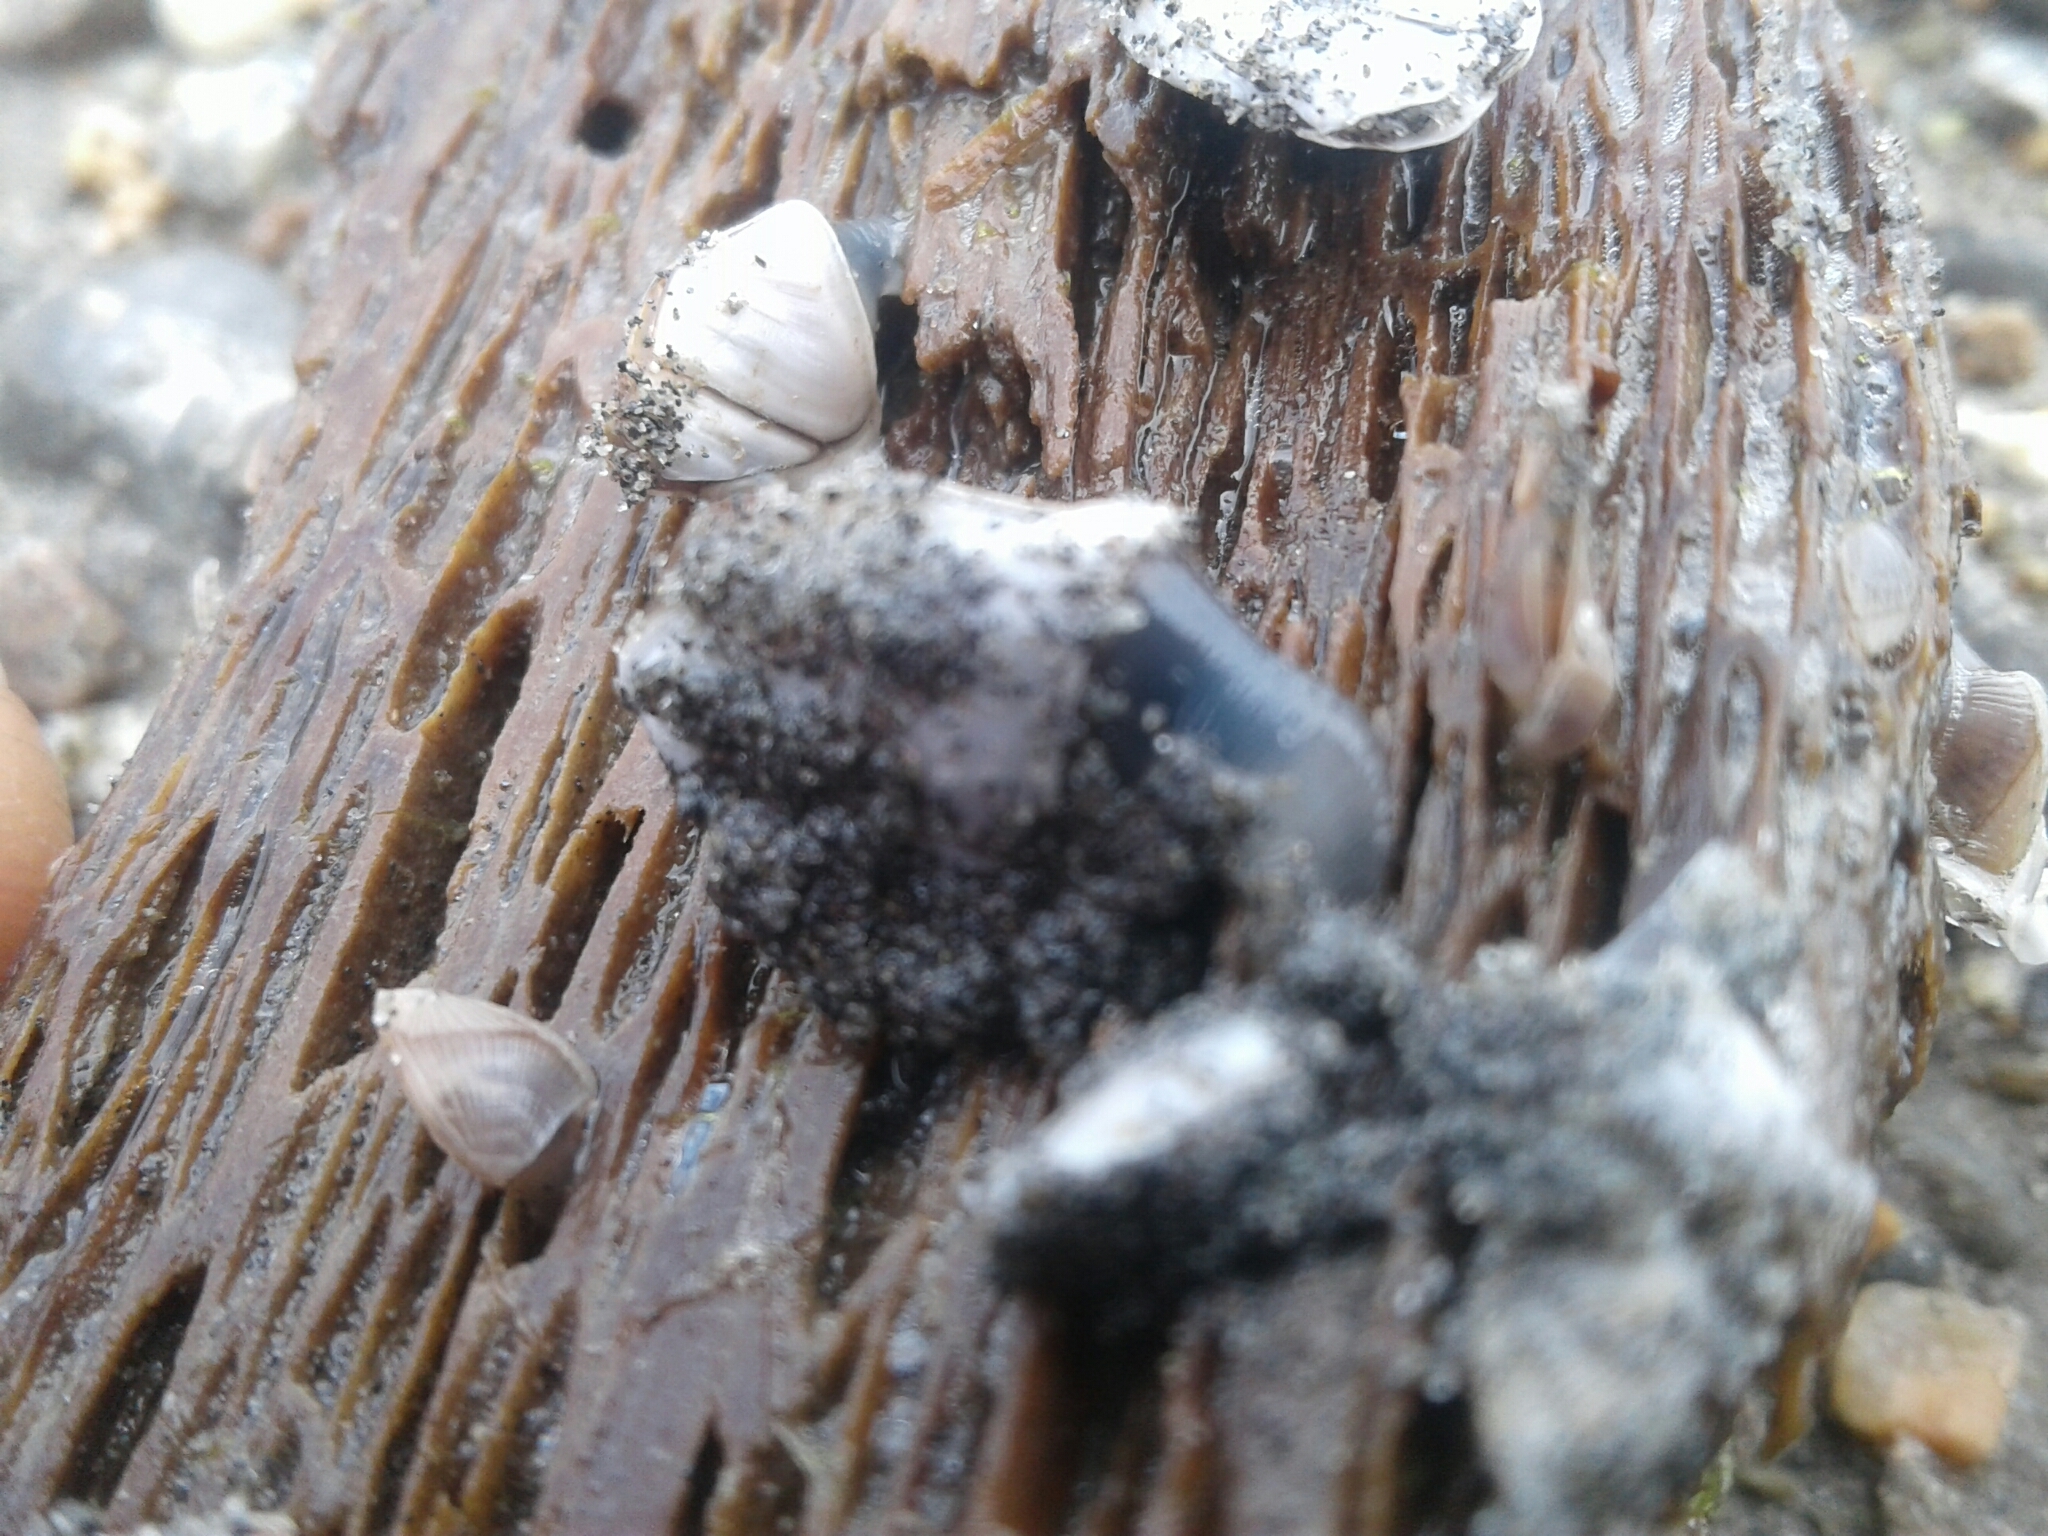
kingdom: Animalia
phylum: Arthropoda
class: Maxillopoda
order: Pedunculata
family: Lepadidae
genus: Lepas
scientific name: Lepas australis
